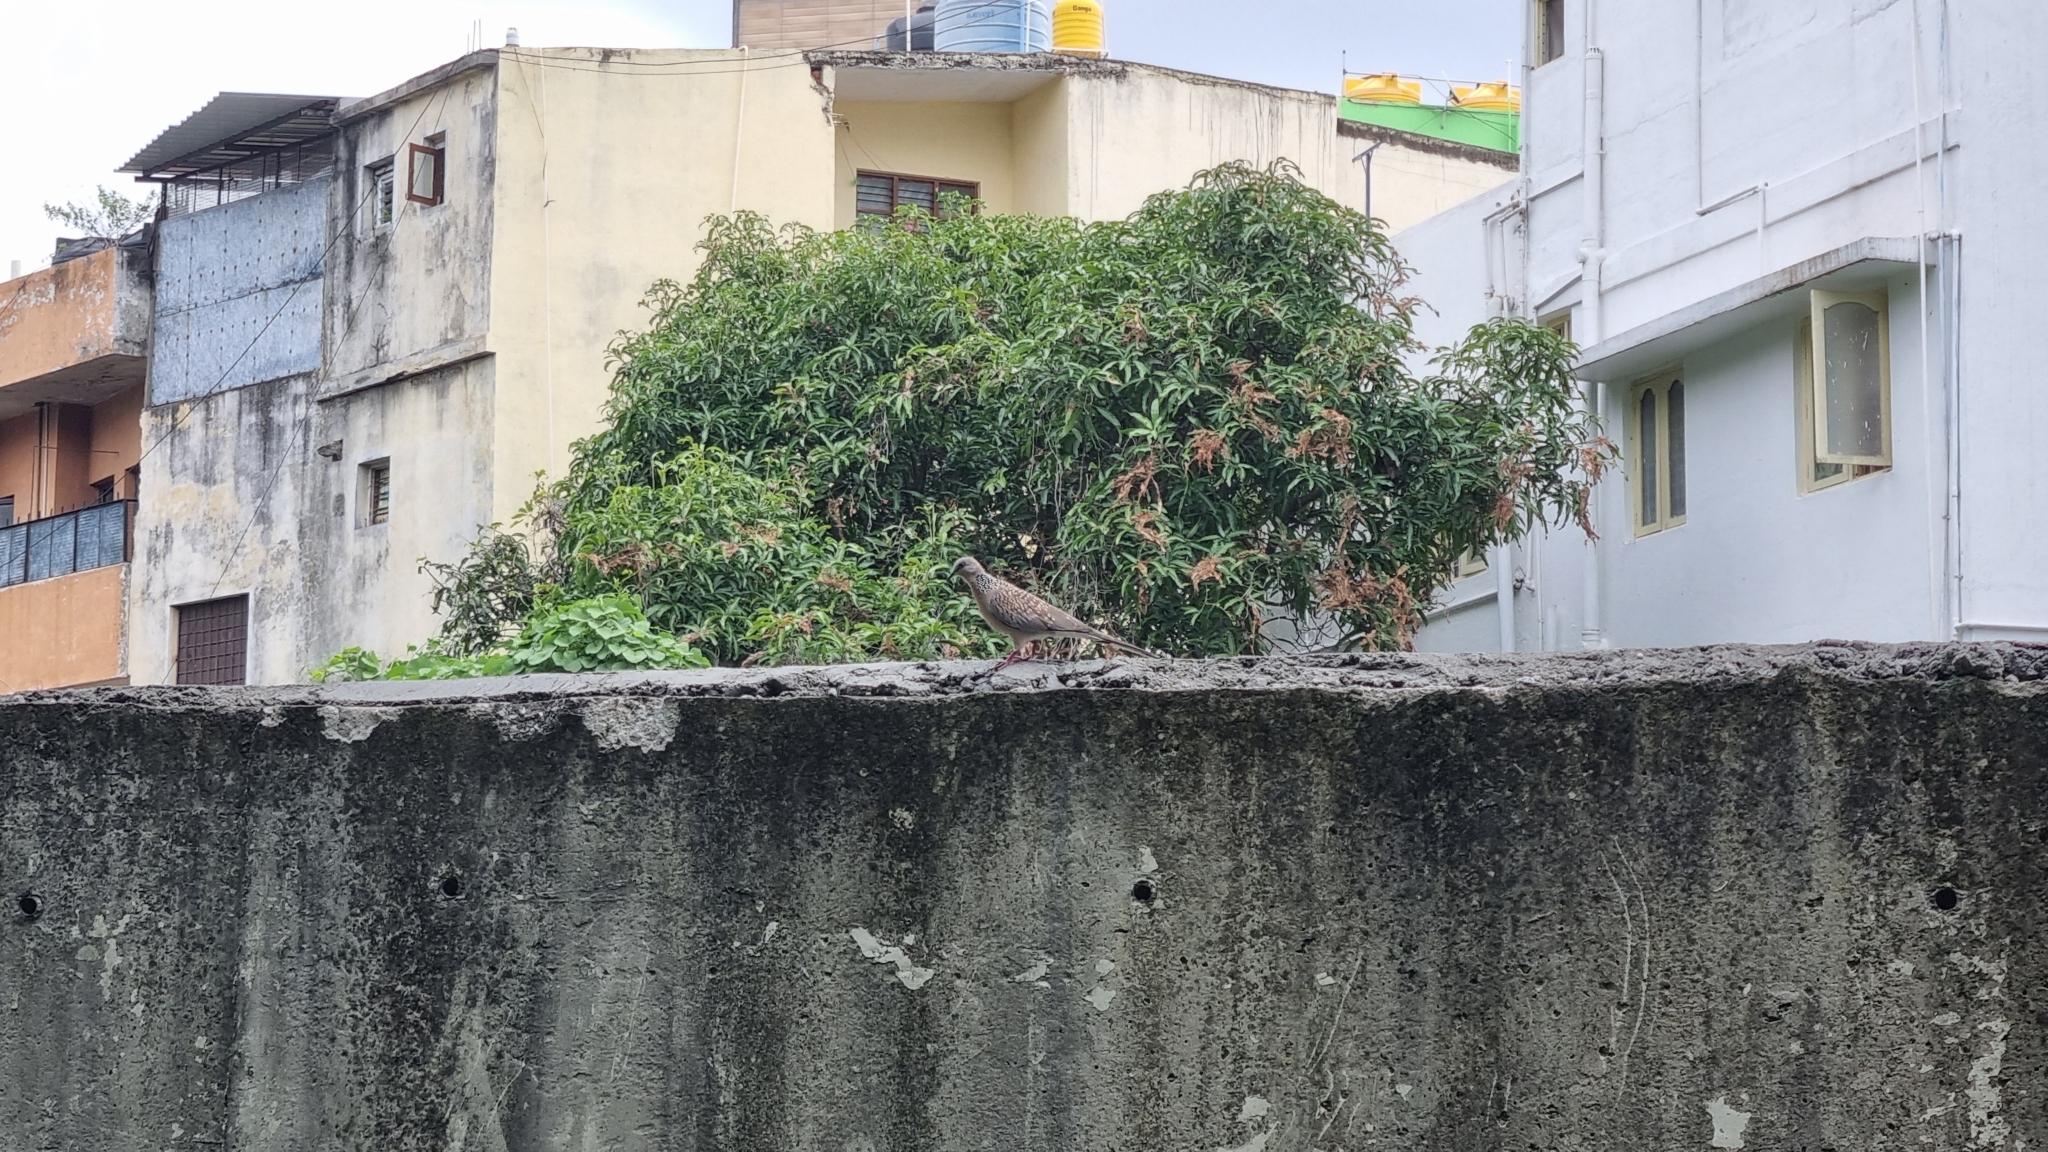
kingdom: Animalia
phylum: Chordata
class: Aves
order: Columbiformes
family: Columbidae
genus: Spilopelia
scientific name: Spilopelia chinensis
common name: Spotted dove
